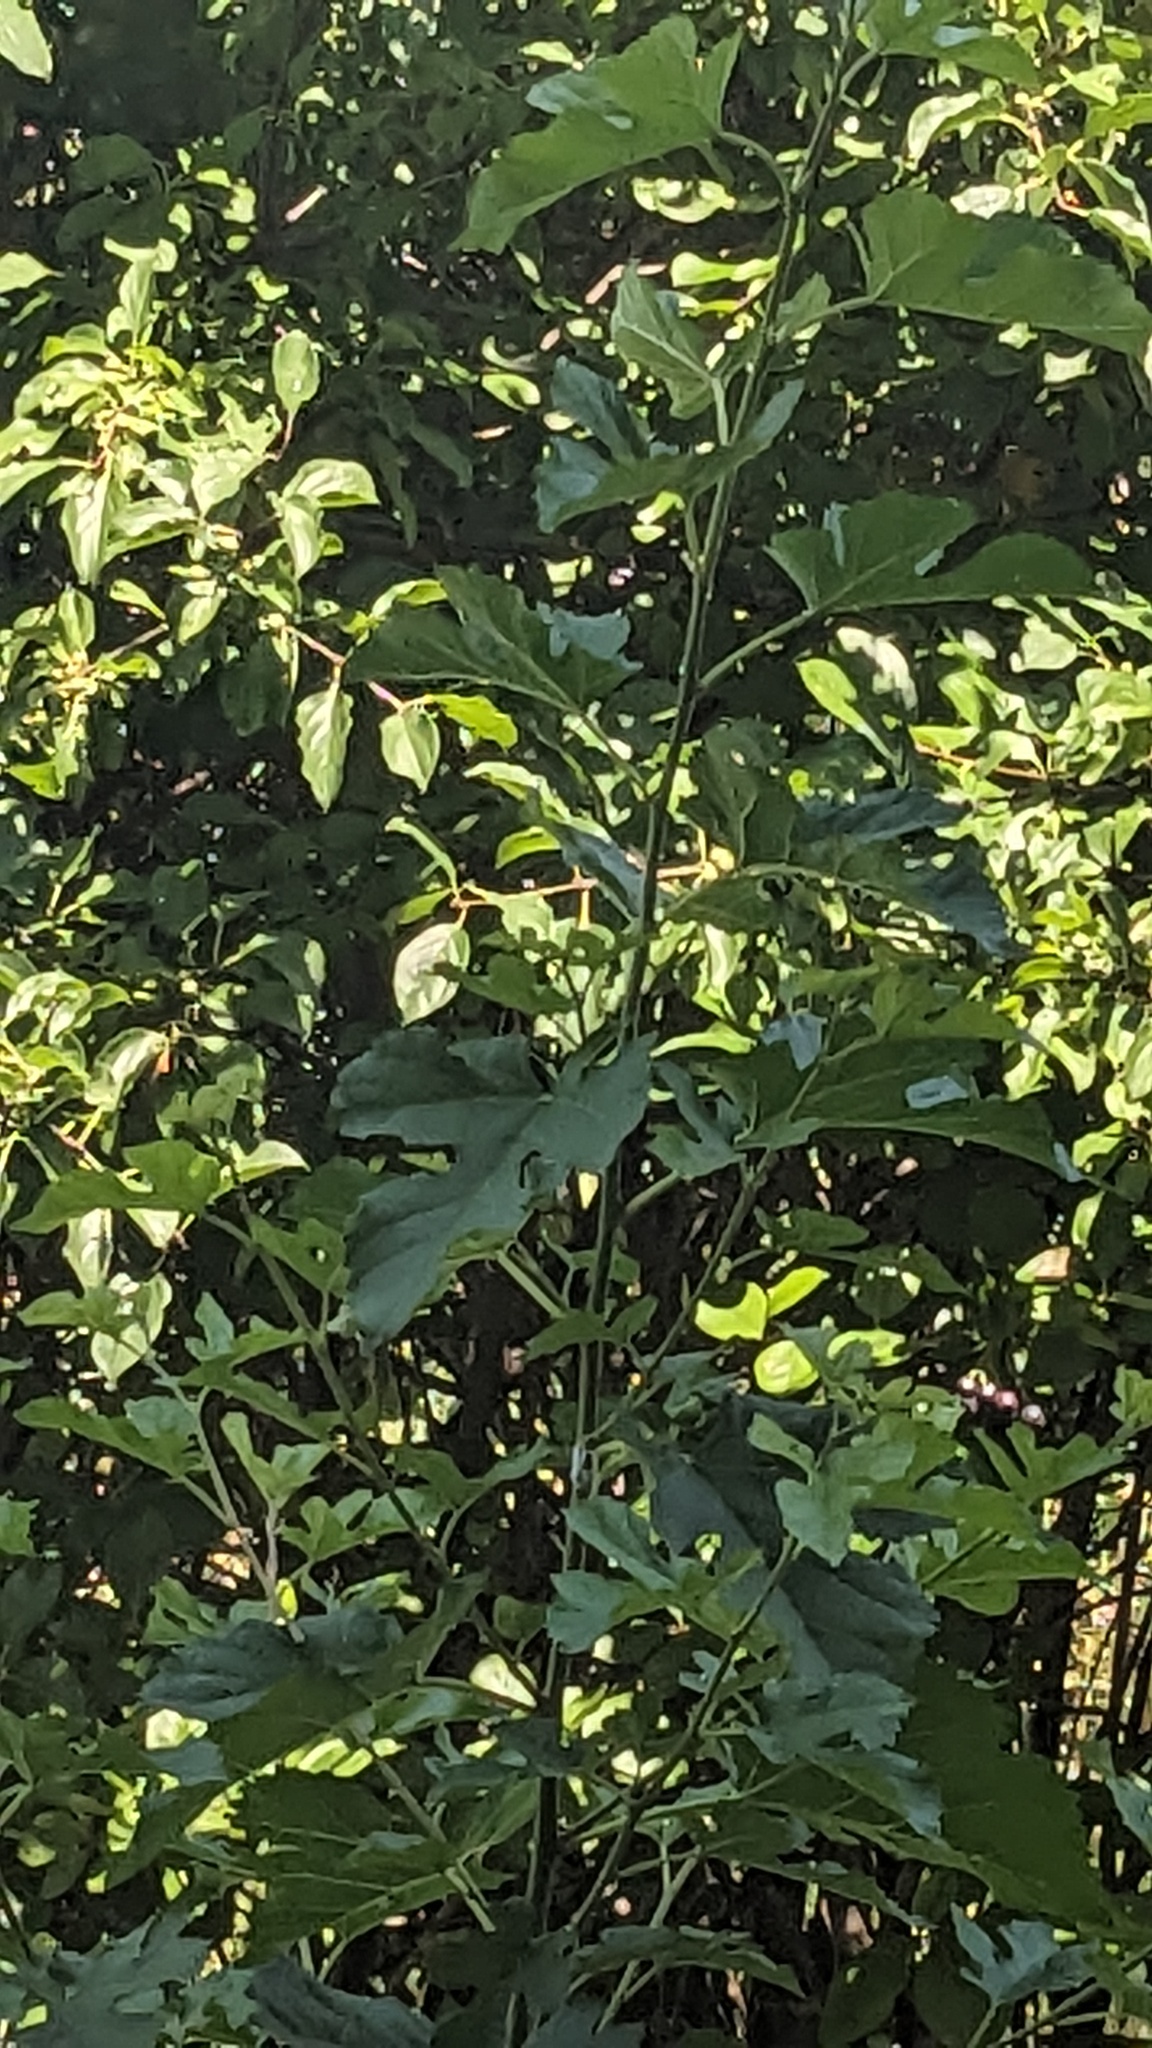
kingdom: Plantae
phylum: Tracheophyta
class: Magnoliopsida
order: Rosales
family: Moraceae
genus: Morus
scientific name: Morus alba
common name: White mulberry
